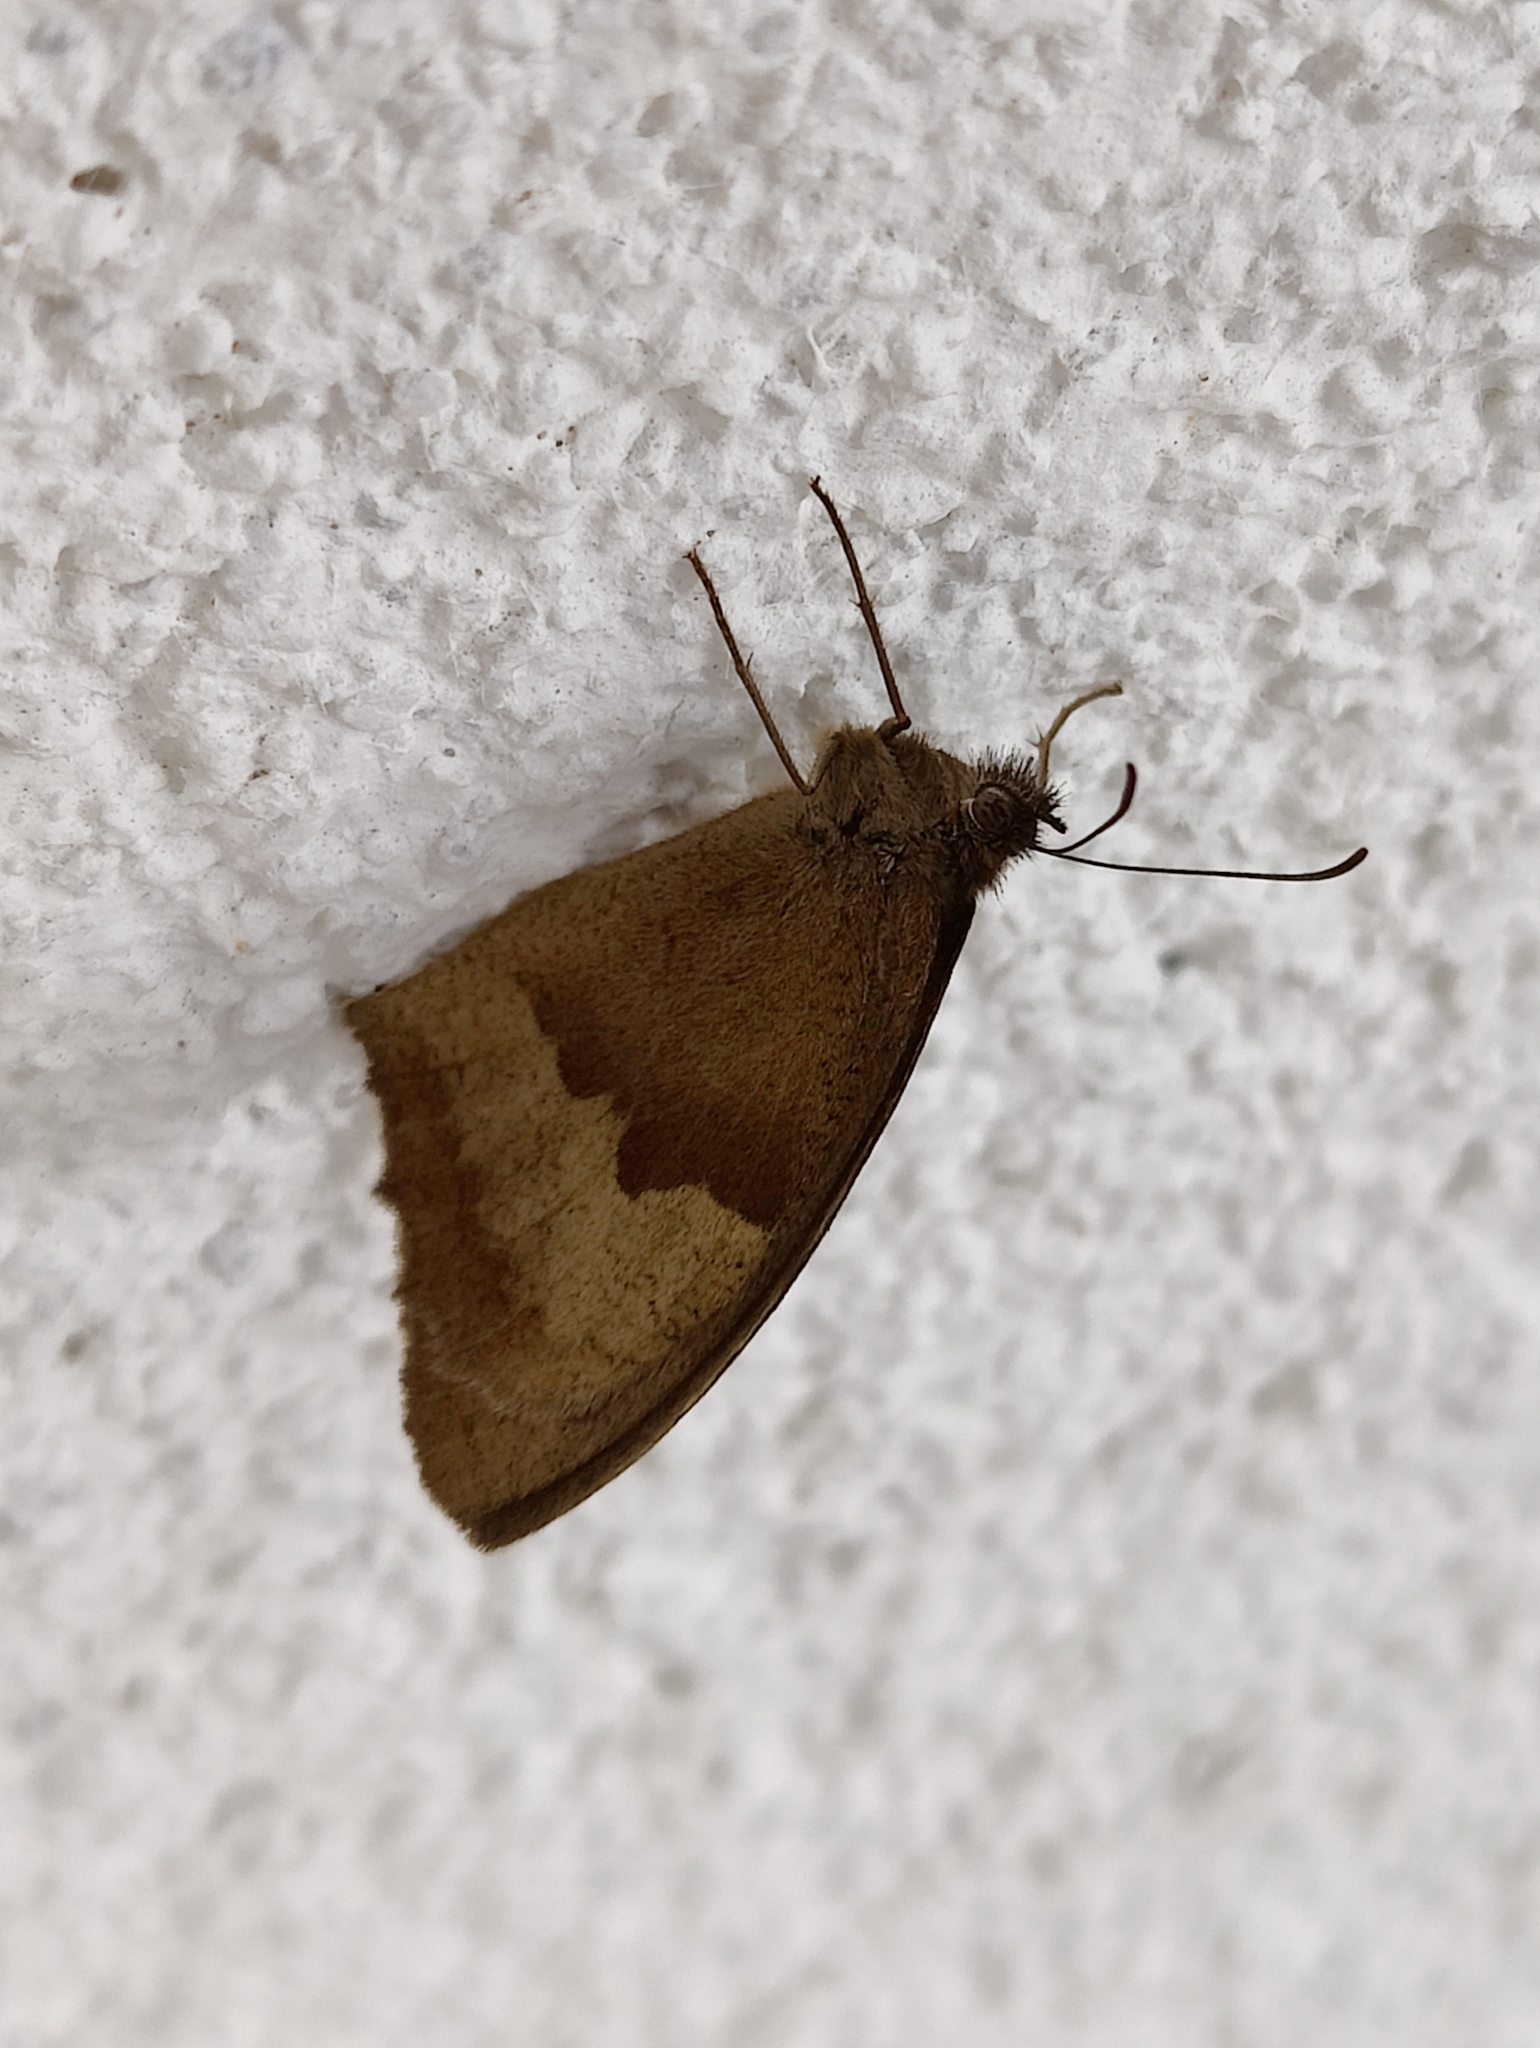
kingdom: Animalia
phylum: Arthropoda
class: Insecta
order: Lepidoptera
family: Nymphalidae
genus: Maniola
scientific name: Maniola jurtina
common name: Meadow brown
